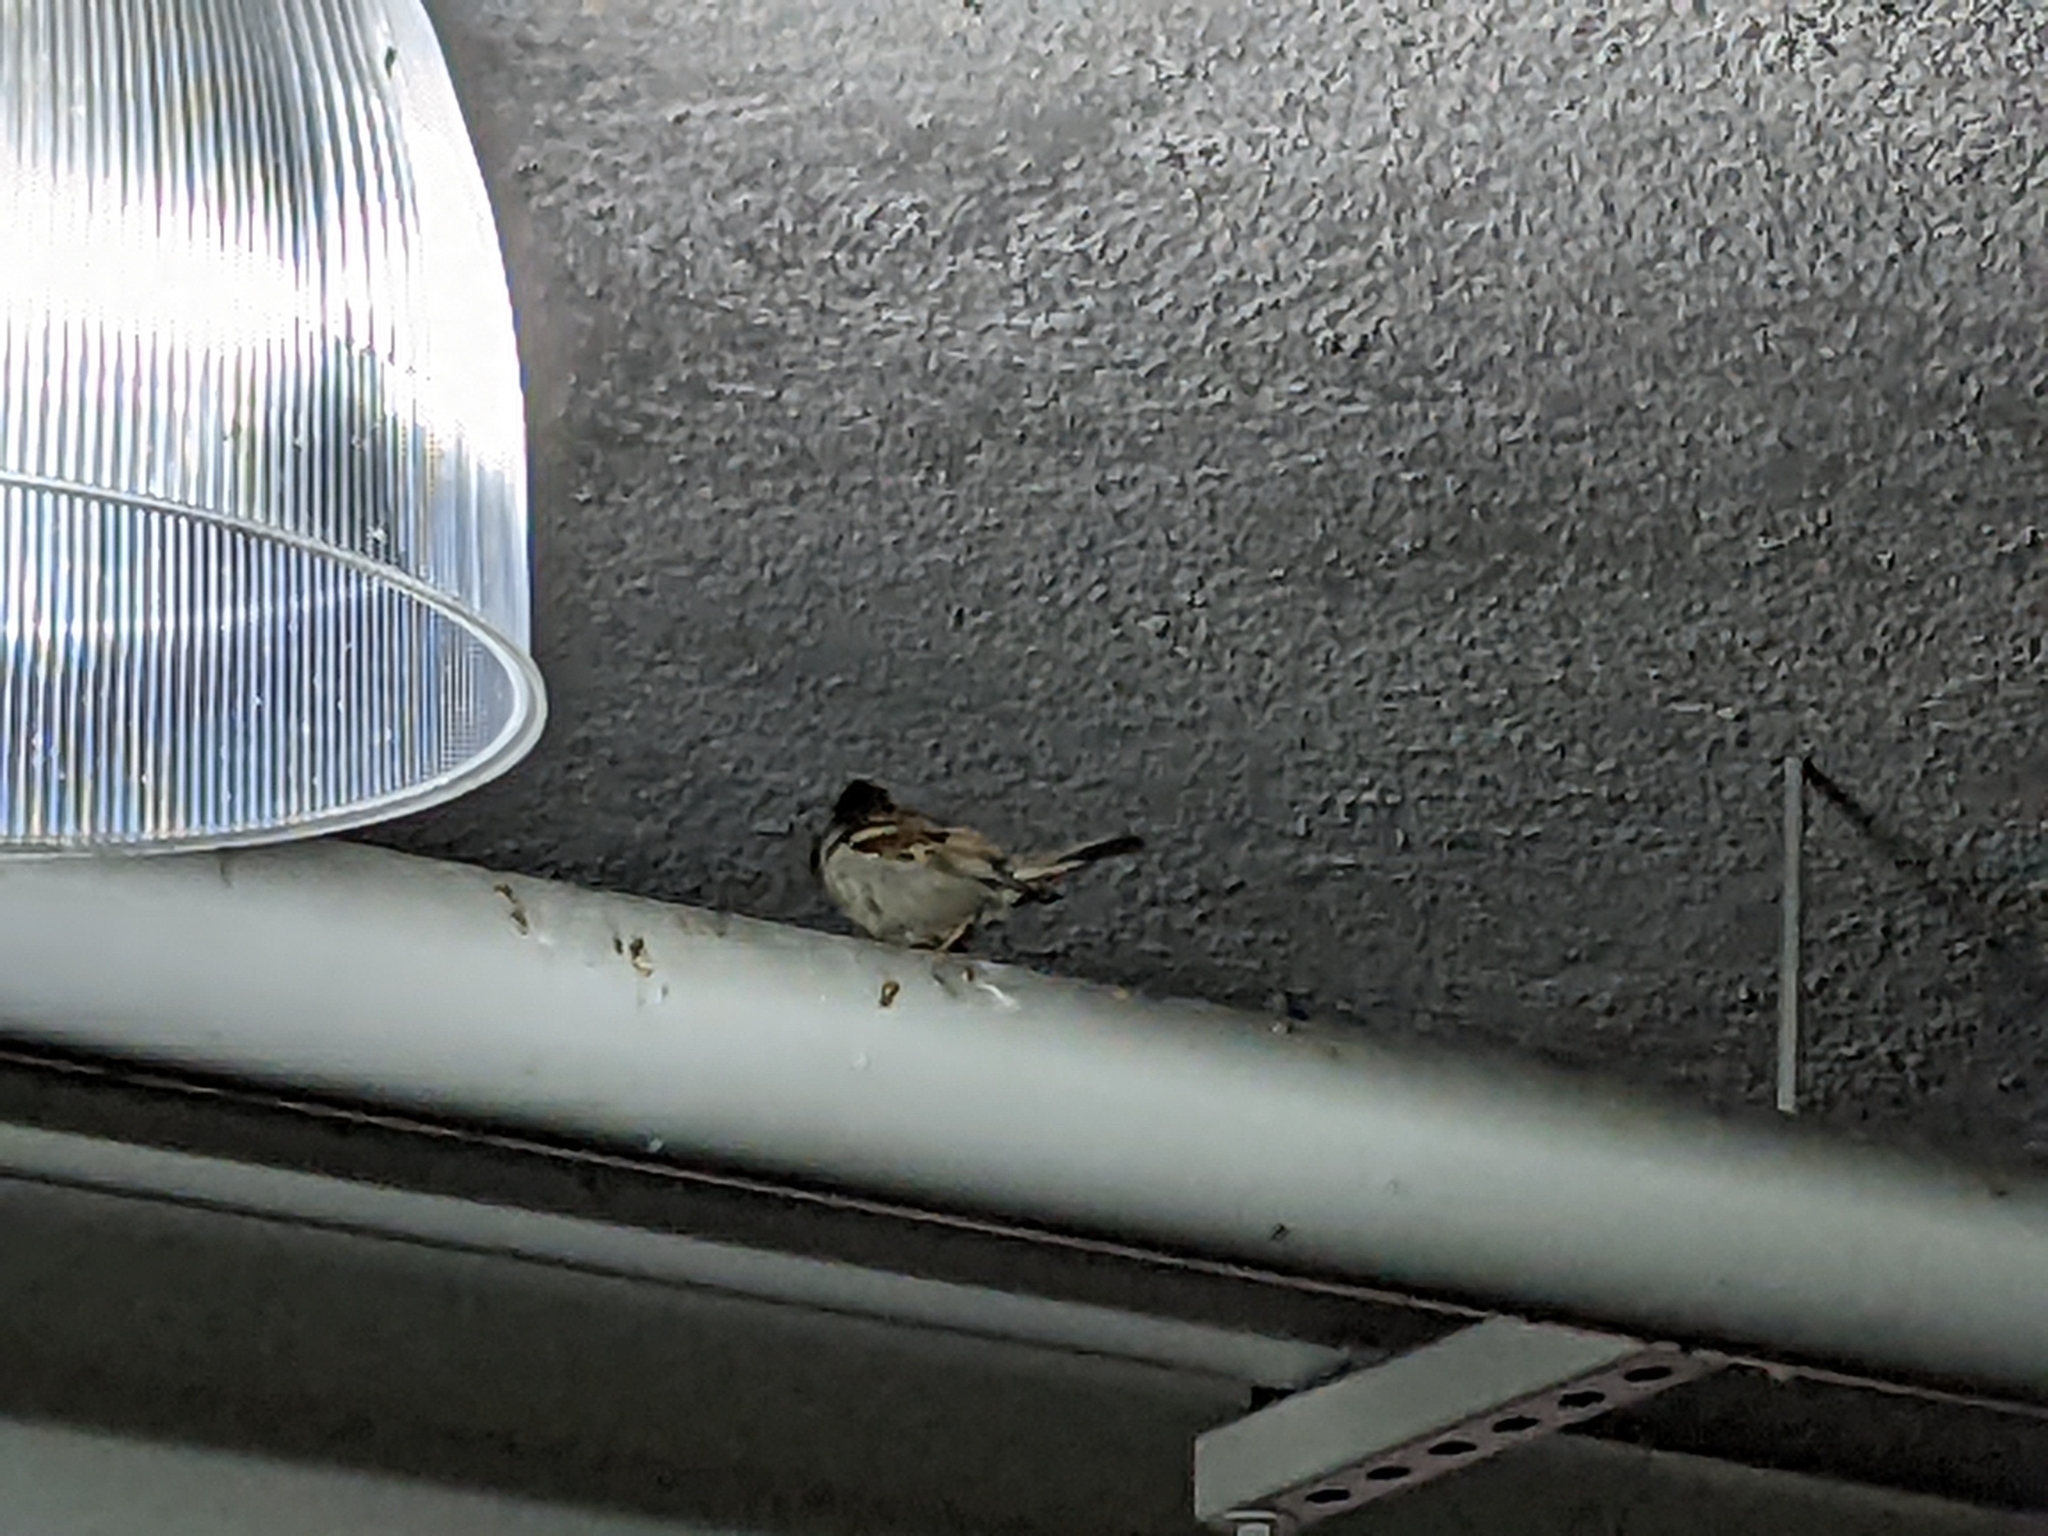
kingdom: Animalia
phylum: Chordata
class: Aves
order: Passeriformes
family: Passeridae
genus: Passer
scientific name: Passer domesticus
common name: House sparrow
